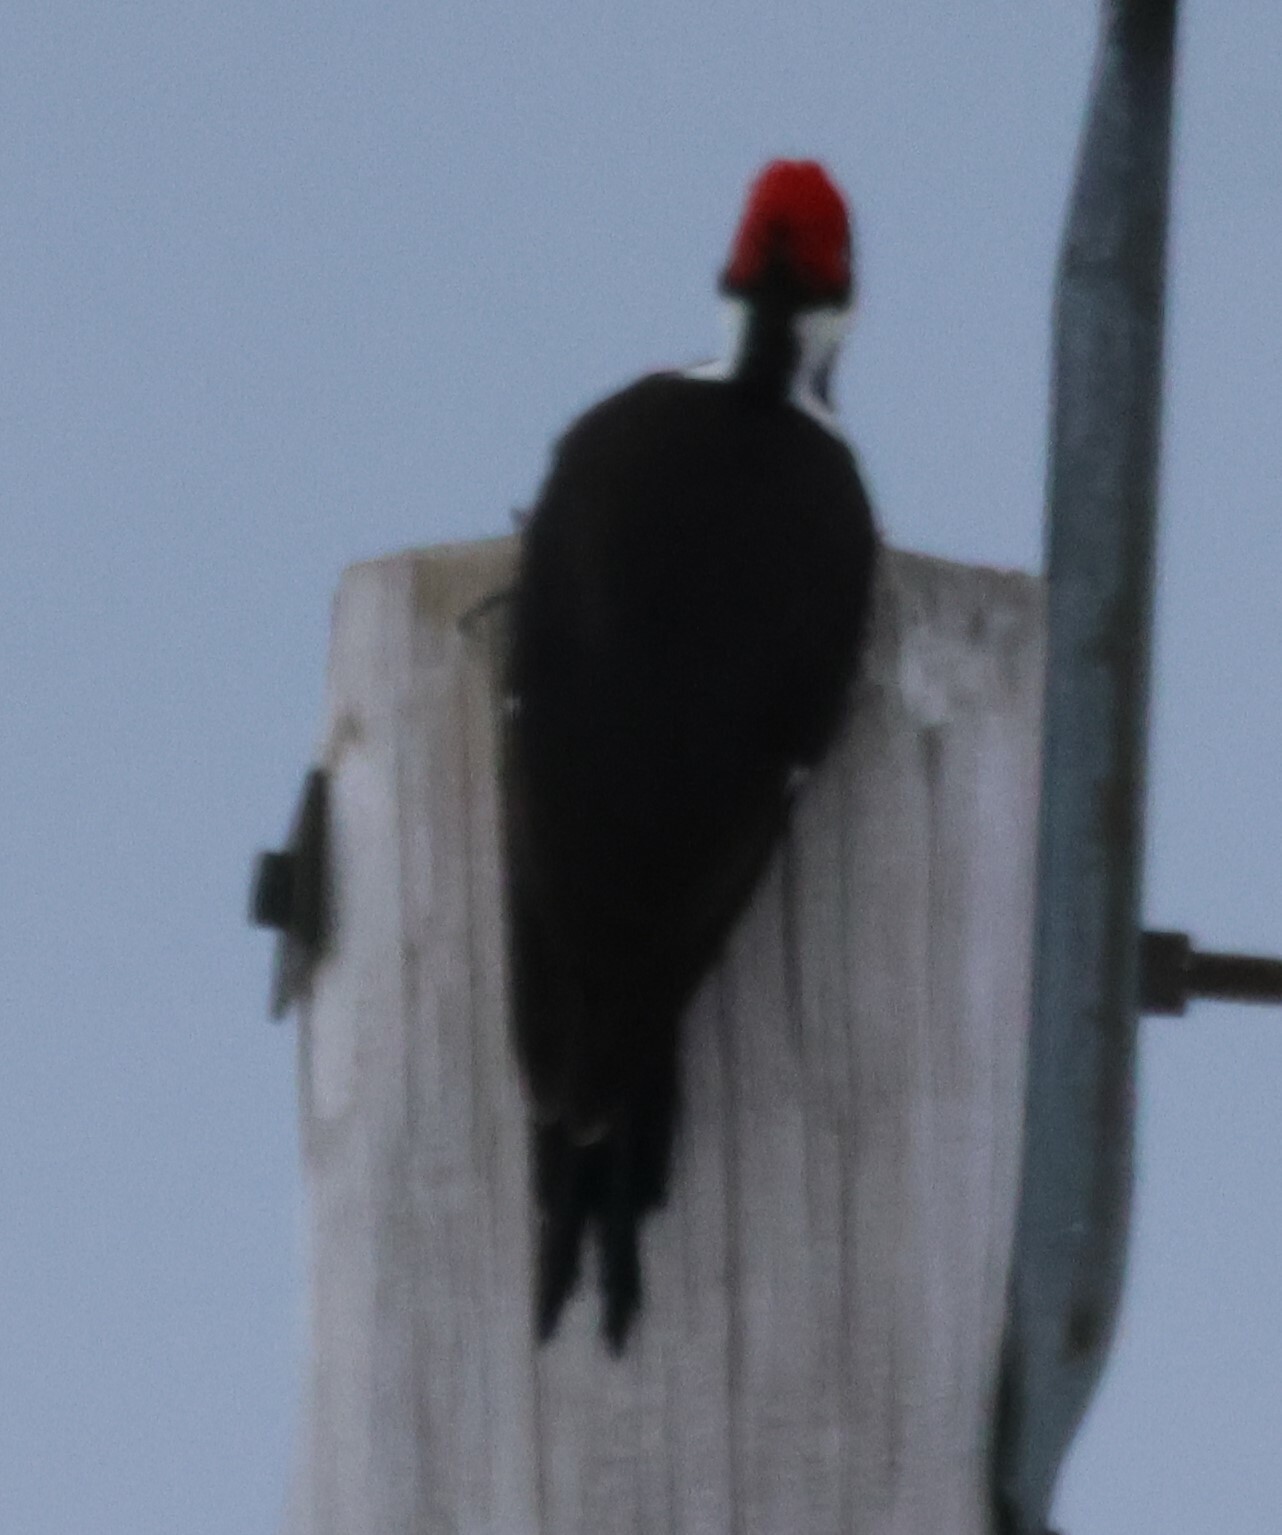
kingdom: Animalia
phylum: Chordata
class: Aves
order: Piciformes
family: Picidae
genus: Dryocopus
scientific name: Dryocopus pileatus
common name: Pileated woodpecker
